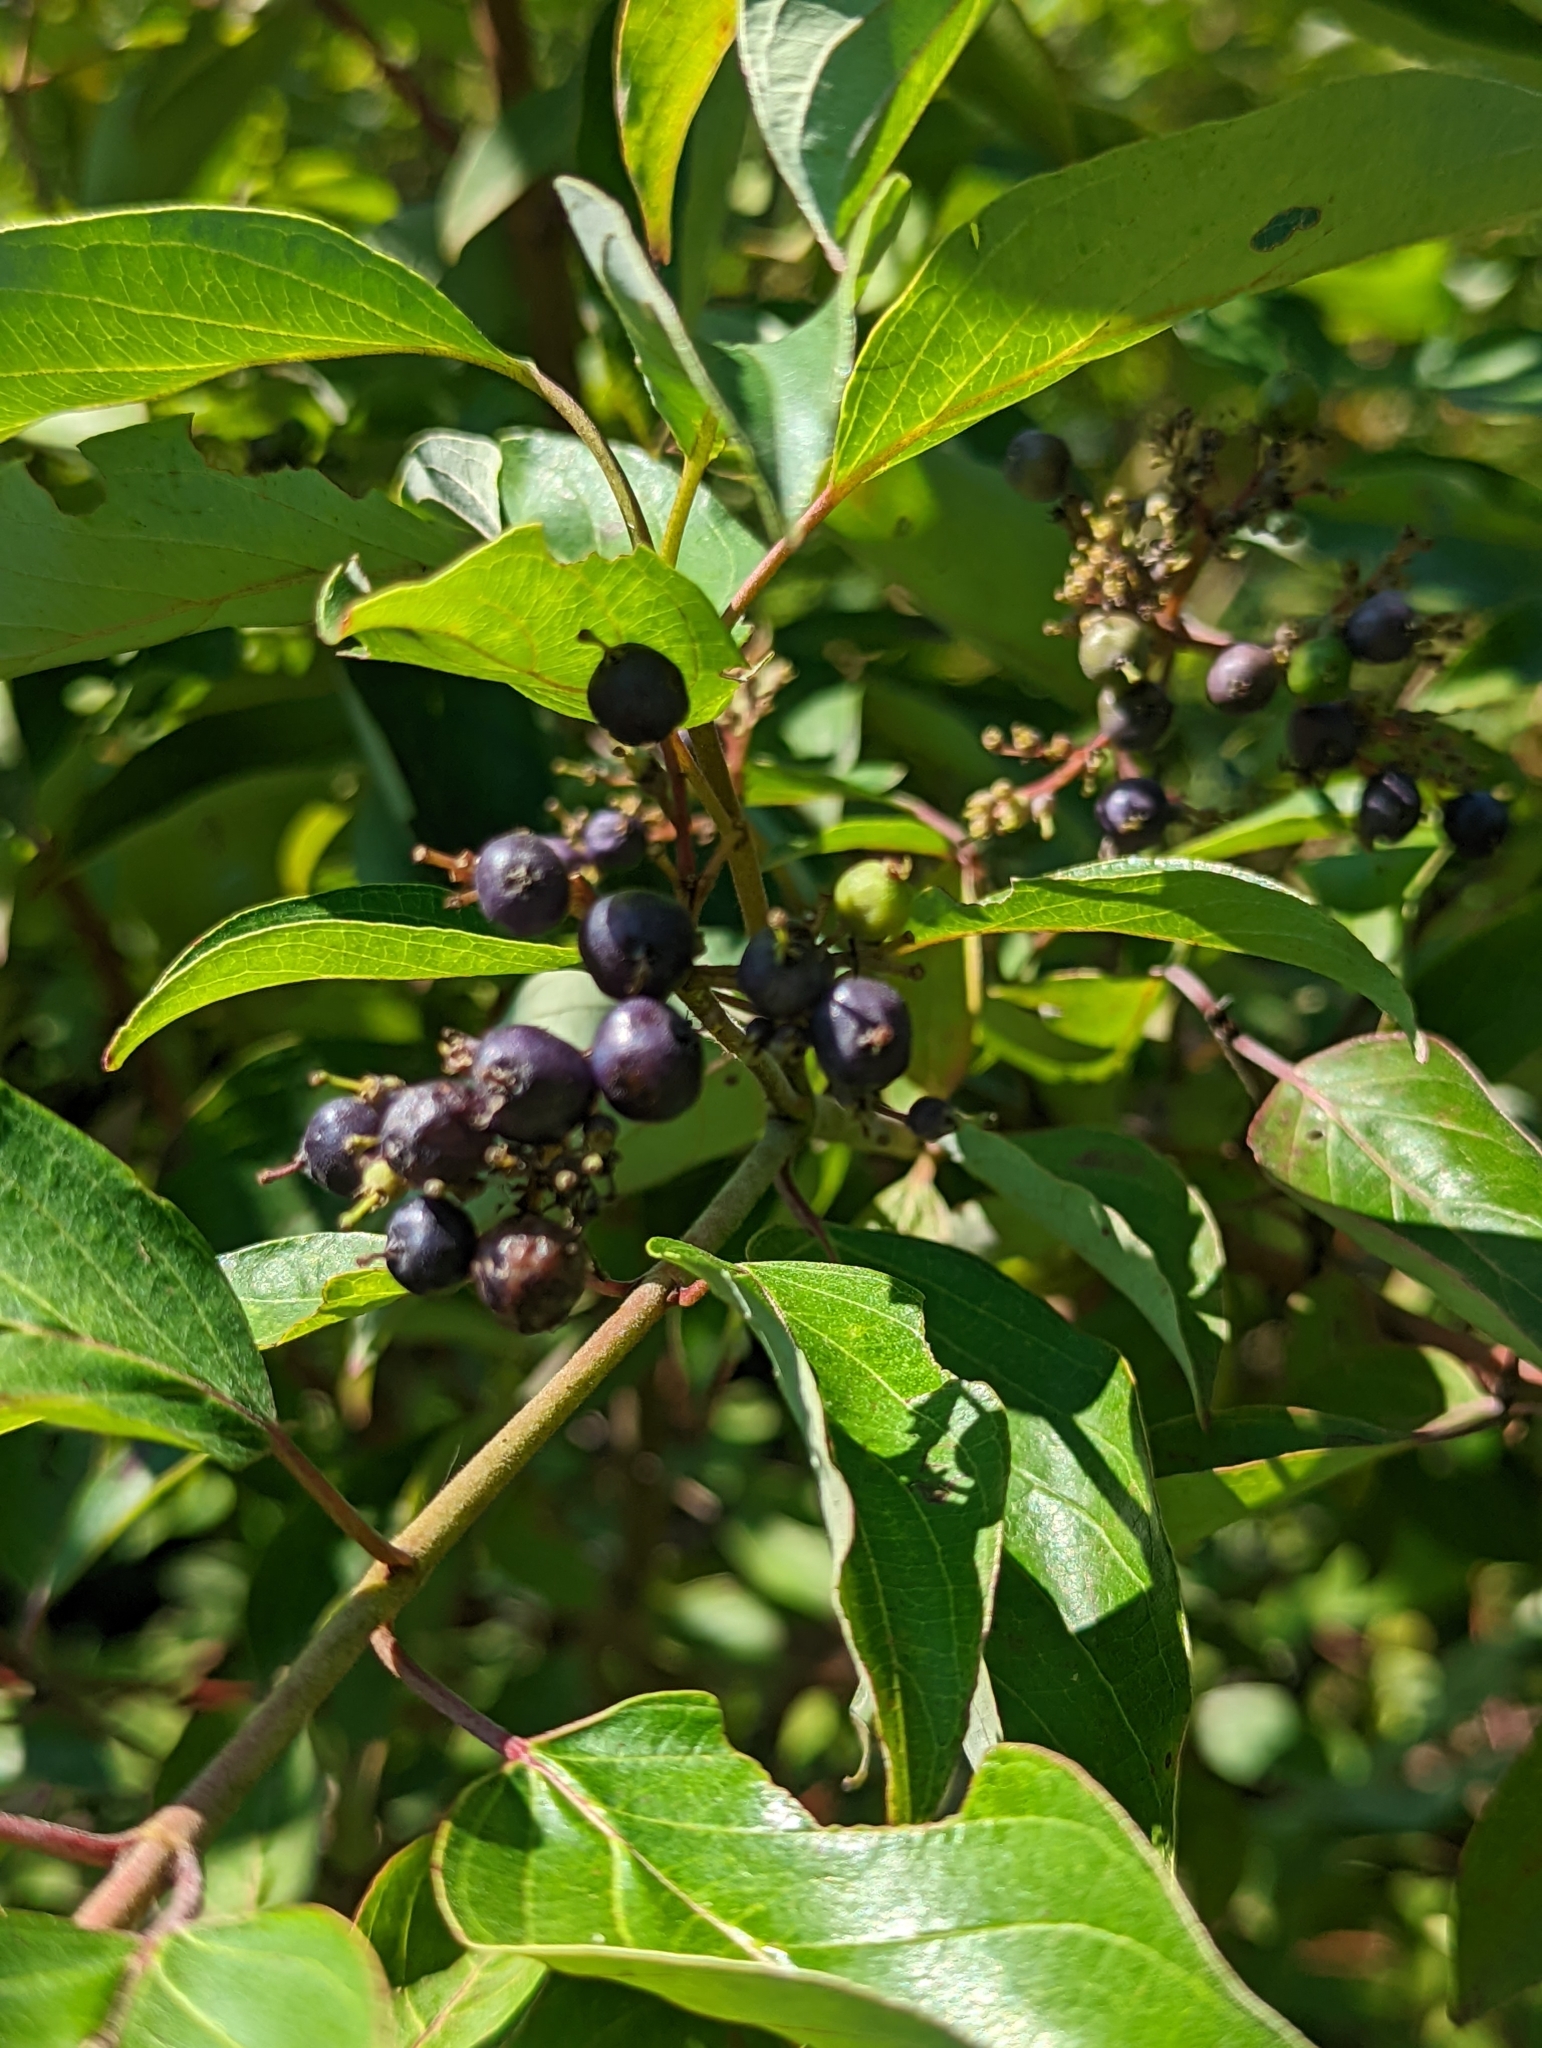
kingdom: Plantae
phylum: Tracheophyta
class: Magnoliopsida
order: Cornales
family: Cornaceae
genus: Cornus
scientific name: Cornus amomum
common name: Silky dogwood
